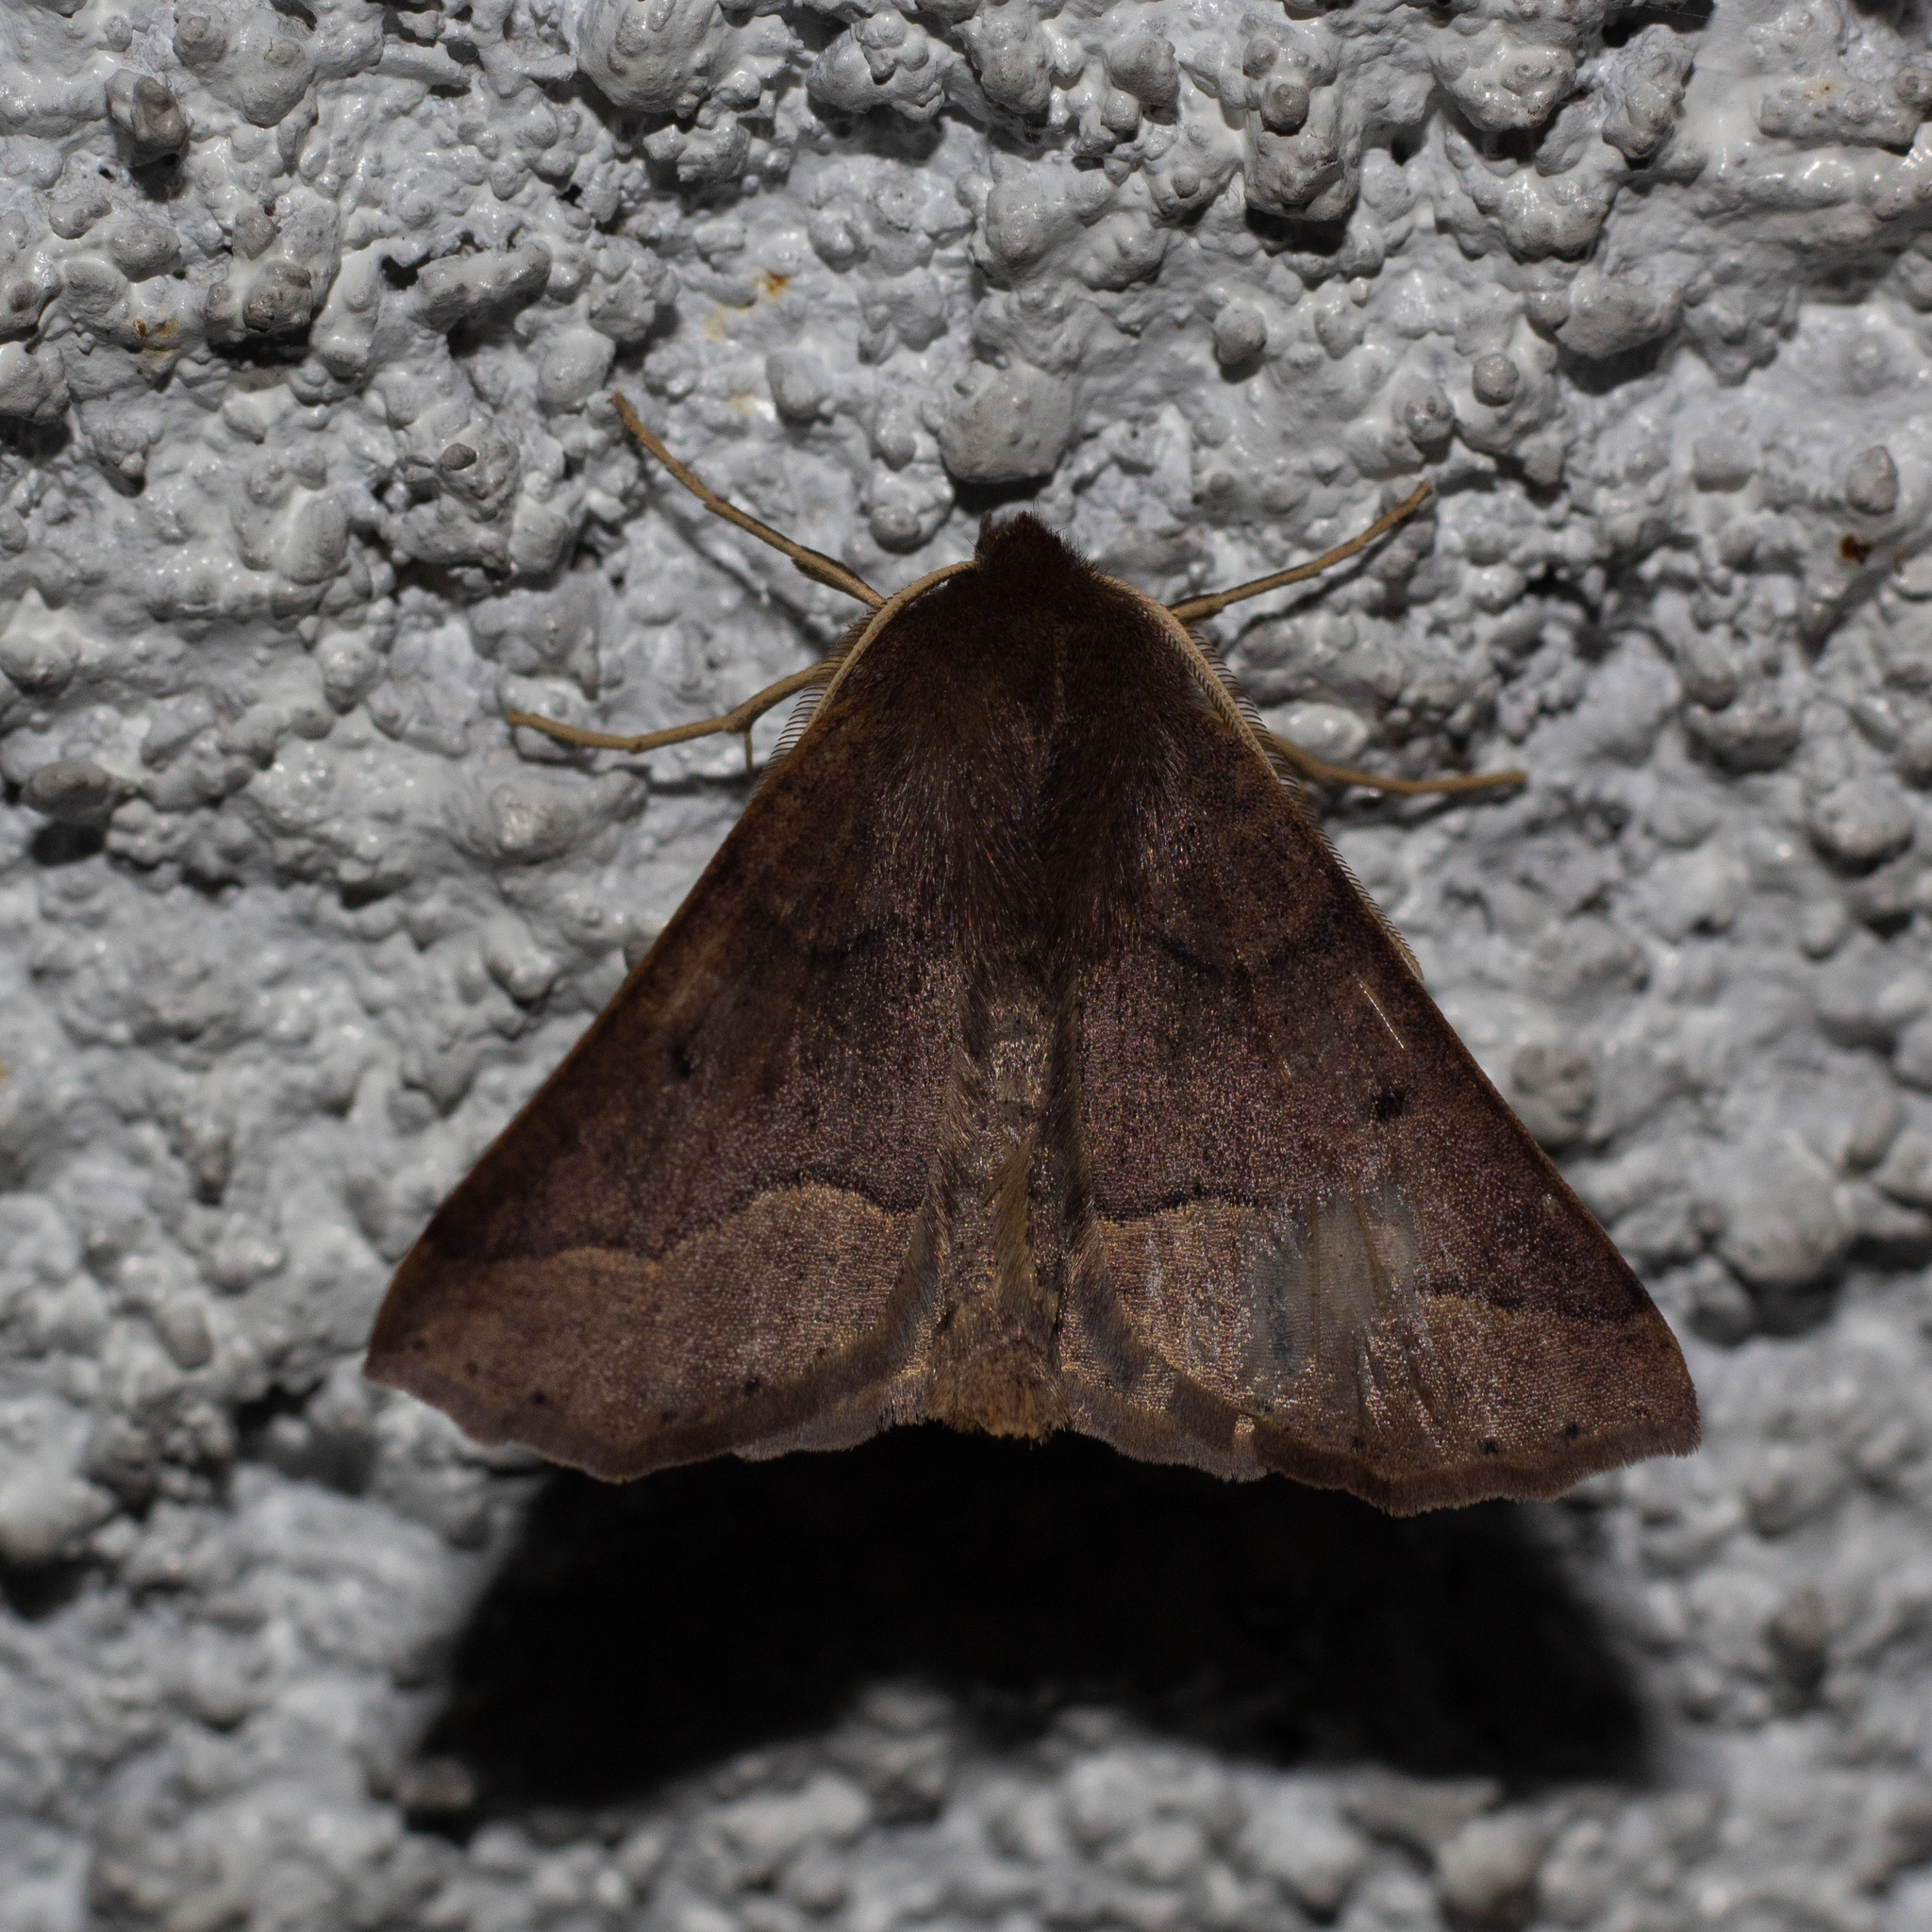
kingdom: Animalia
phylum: Arthropoda
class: Insecta
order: Lepidoptera
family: Geometridae
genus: Crocallis
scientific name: Crocallis tusciaria
